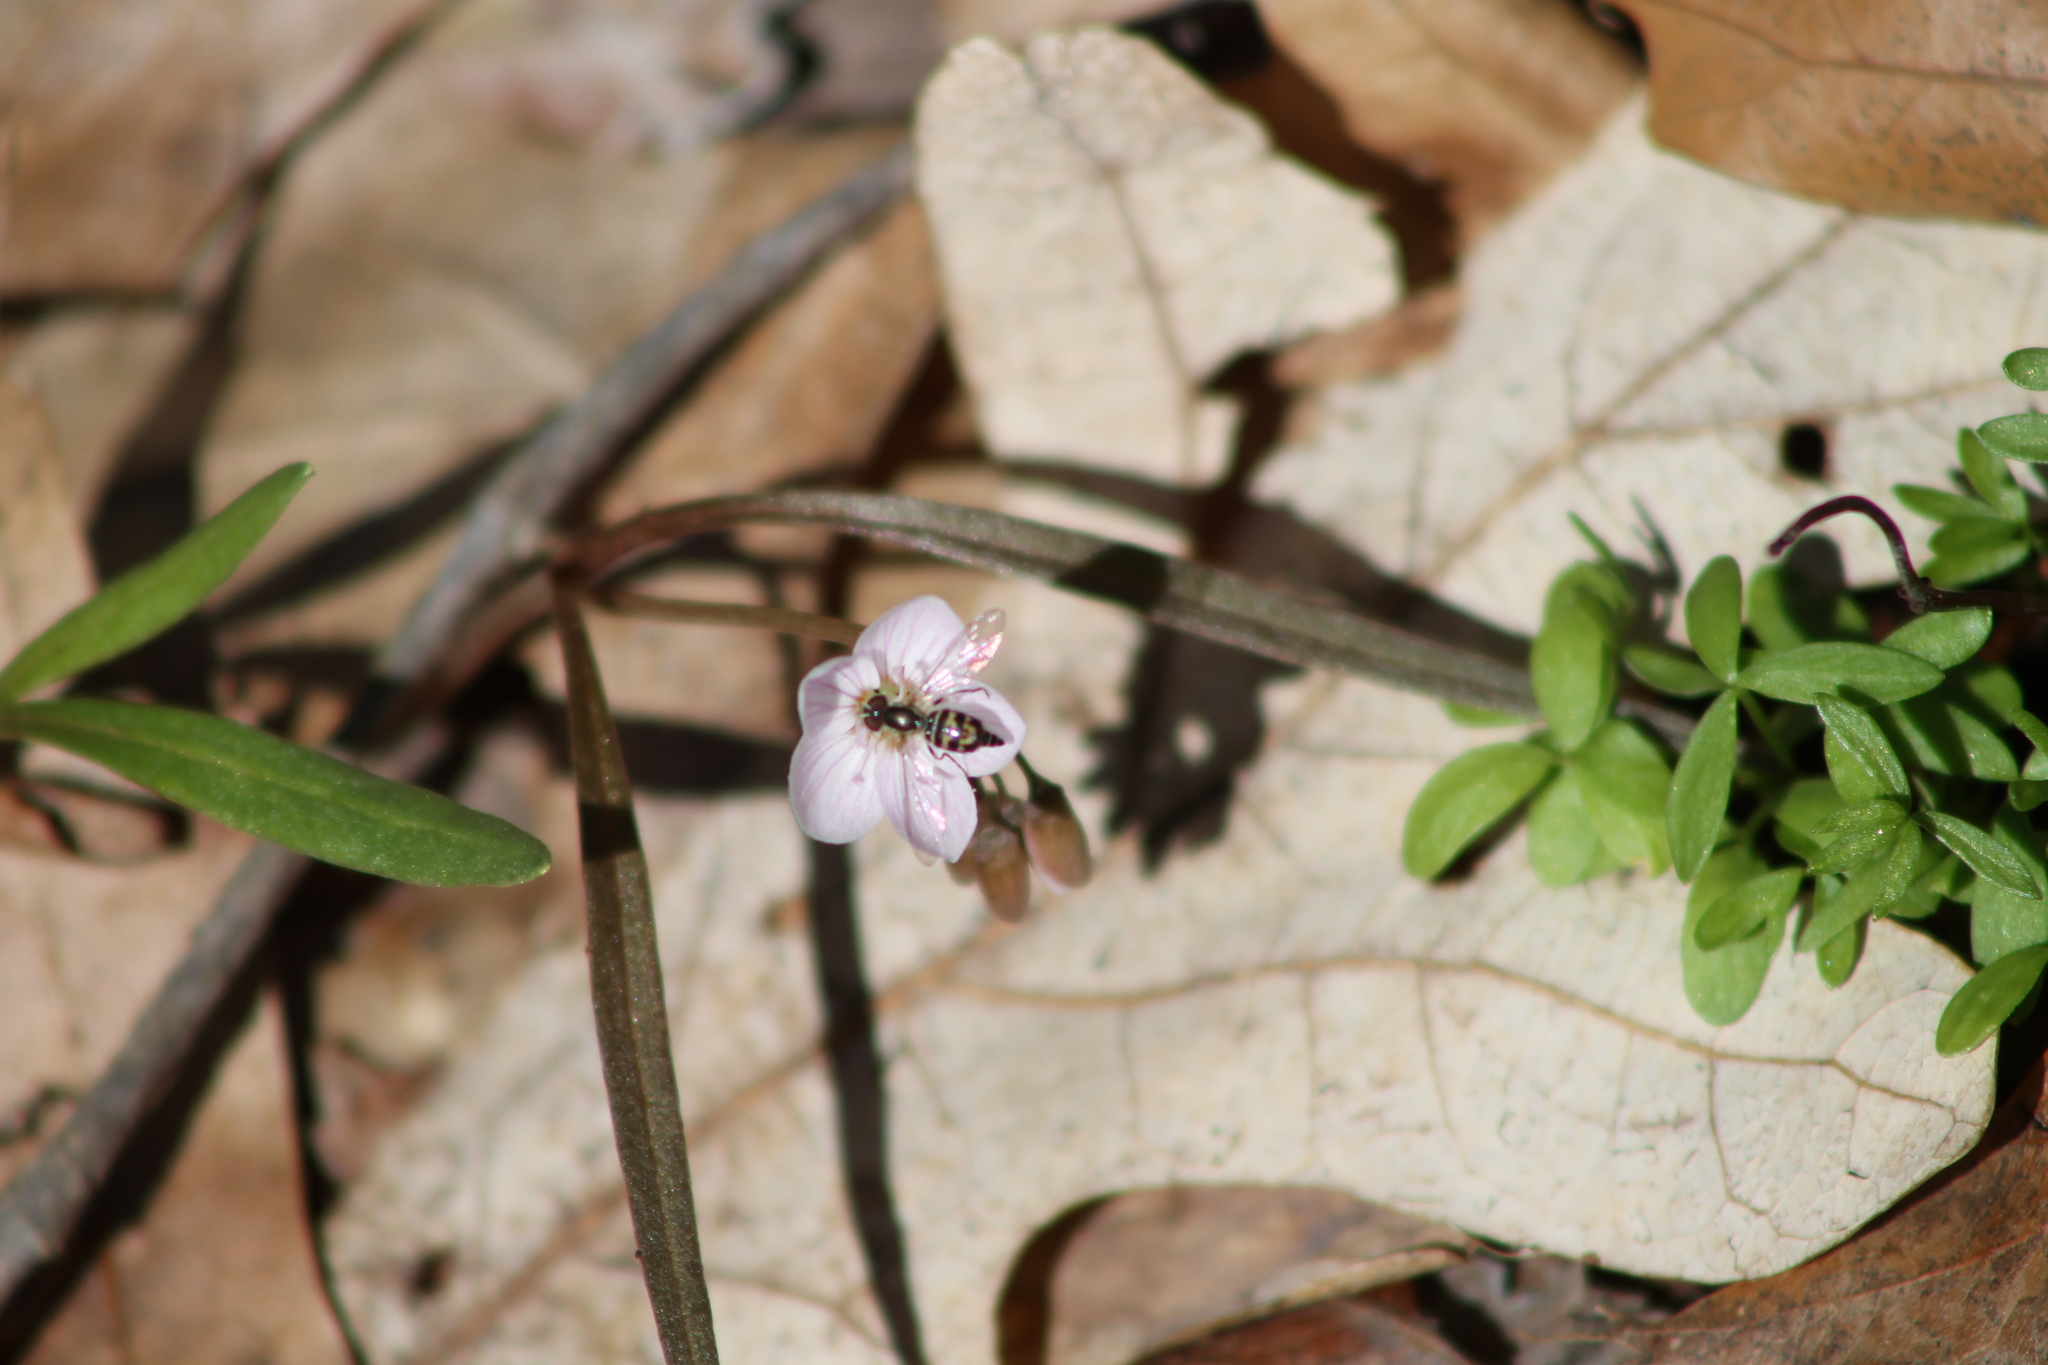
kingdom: Animalia
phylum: Arthropoda
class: Insecta
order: Diptera
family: Syrphidae
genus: Toxomerus
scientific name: Toxomerus geminatus
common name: Eastern calligrapher
